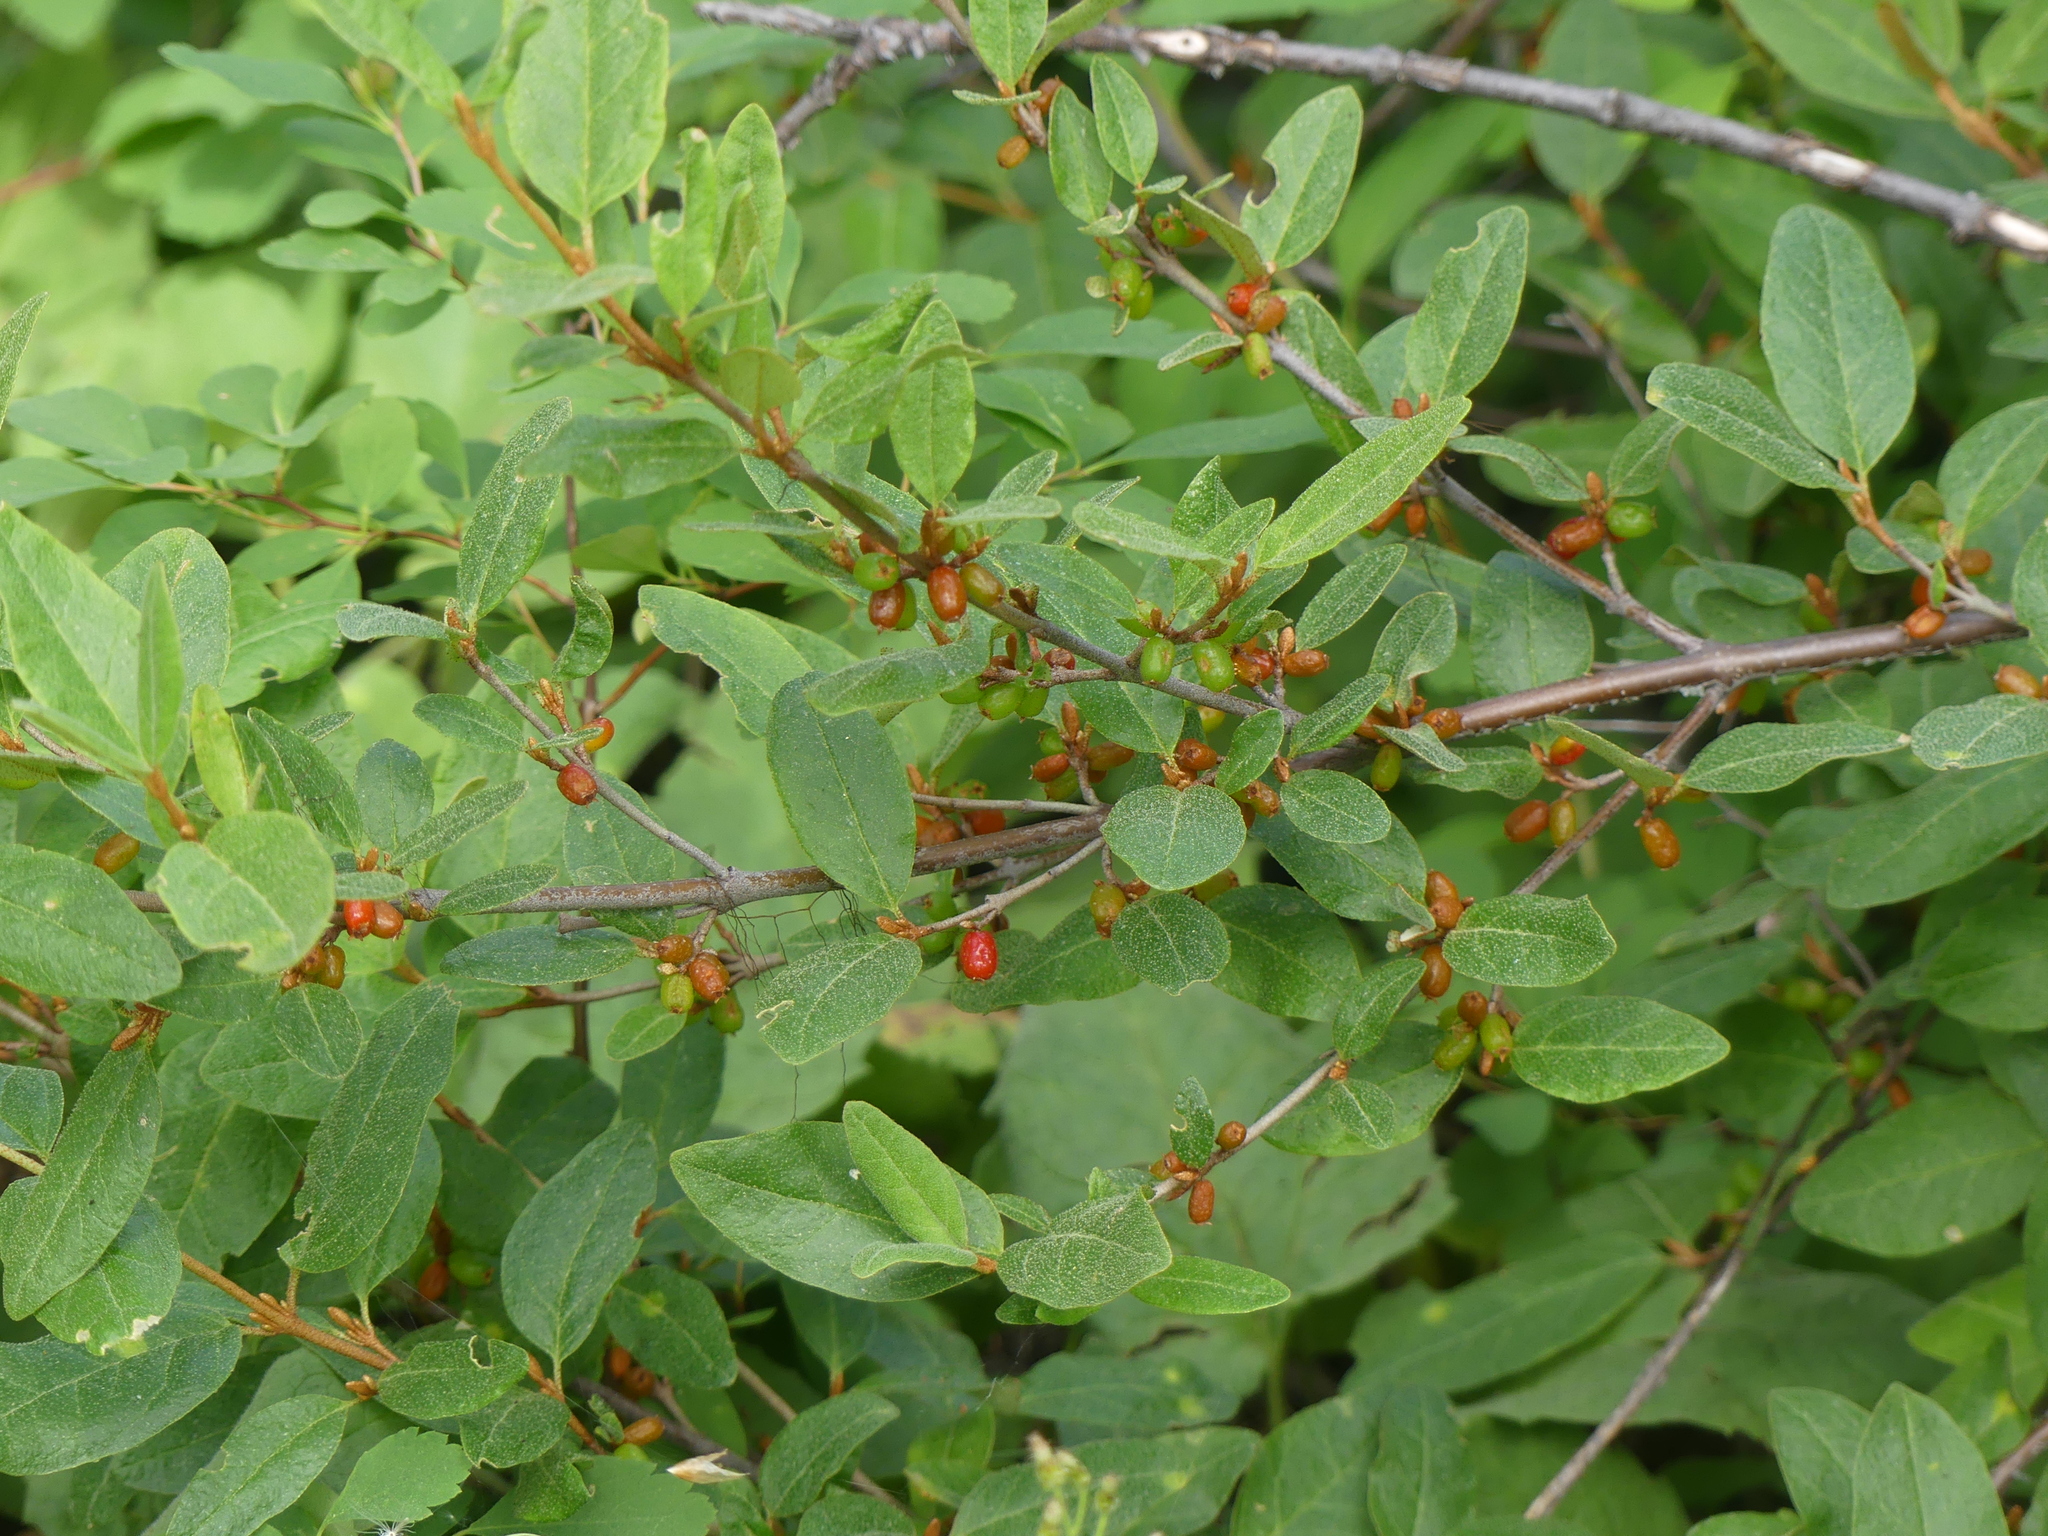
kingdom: Plantae
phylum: Tracheophyta
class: Magnoliopsida
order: Rosales
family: Elaeagnaceae
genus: Shepherdia
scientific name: Shepherdia canadensis
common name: Soapberry
